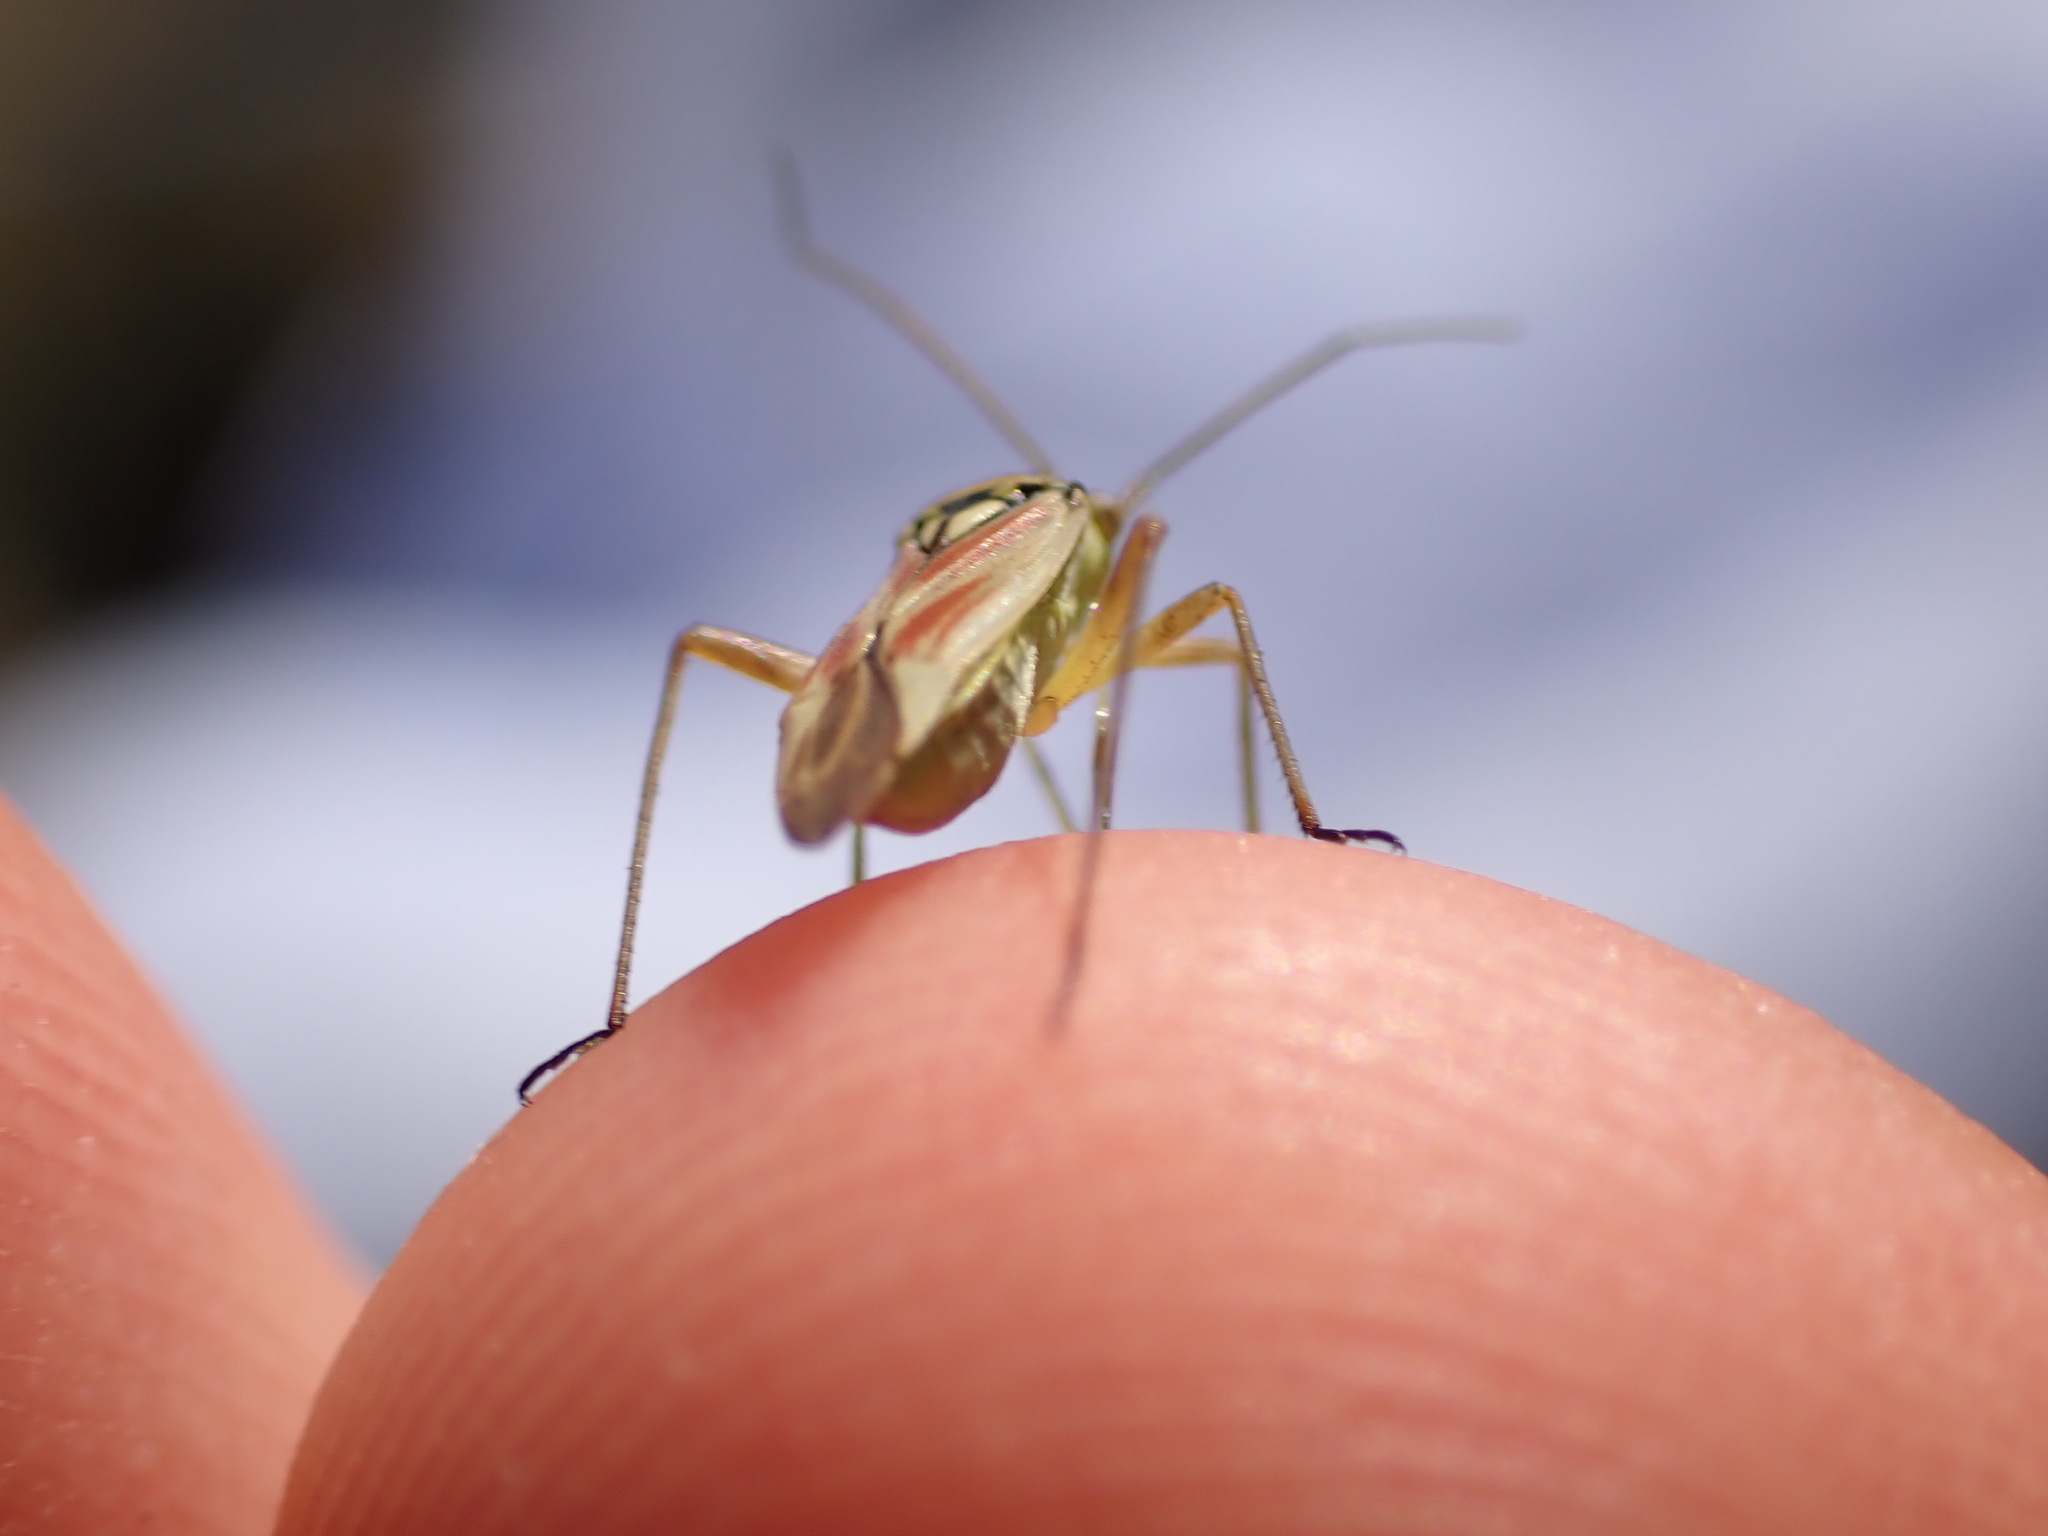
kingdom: Animalia
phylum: Arthropoda
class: Insecta
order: Hemiptera
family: Miridae
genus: Calocoris
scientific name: Calocoris roseomaculatus
